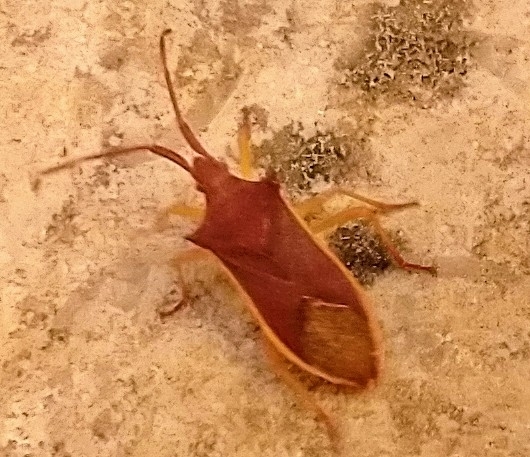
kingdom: Animalia
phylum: Arthropoda
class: Insecta
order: Hemiptera
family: Coreidae
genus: Gonocerus
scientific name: Gonocerus insidiator
